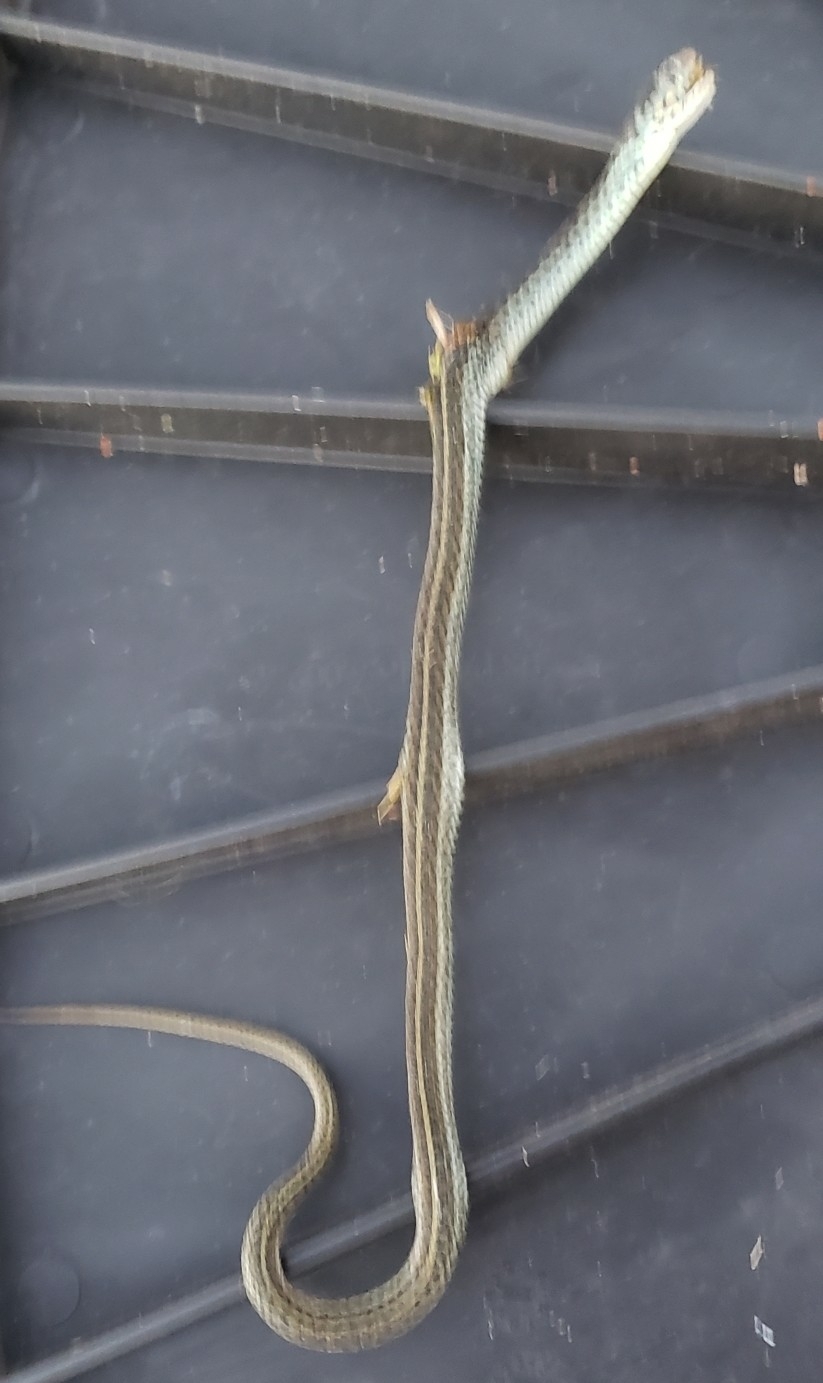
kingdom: Animalia
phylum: Chordata
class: Squamata
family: Colubridae
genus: Thamnophis
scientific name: Thamnophis sirtalis
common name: Common garter snake
